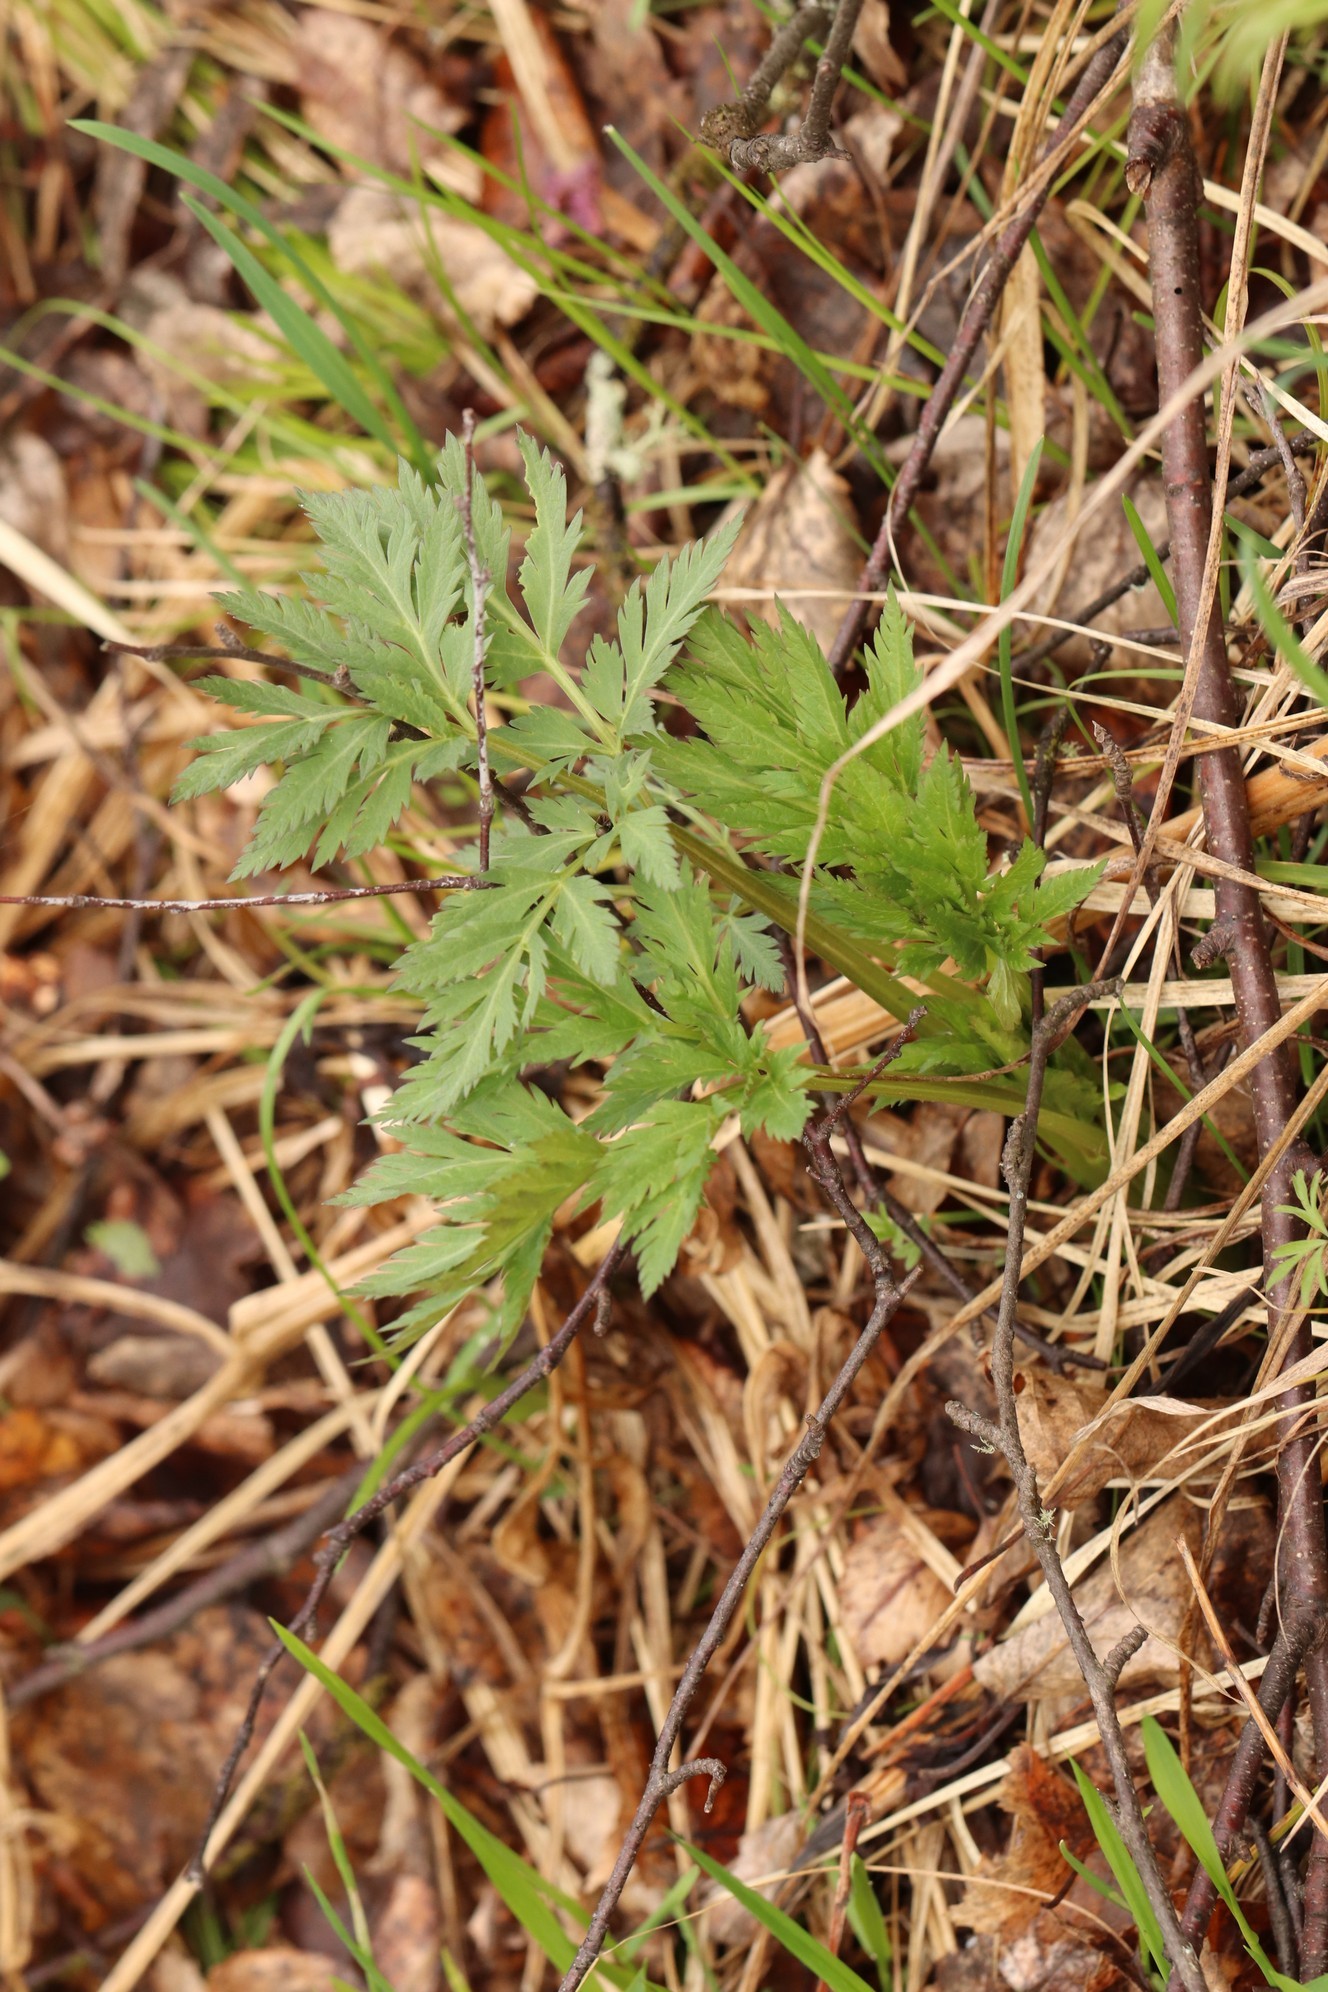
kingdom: Plantae
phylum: Tracheophyta
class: Magnoliopsida
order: Apiales
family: Apiaceae
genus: Pleurospermum
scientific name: Pleurospermum uralense
